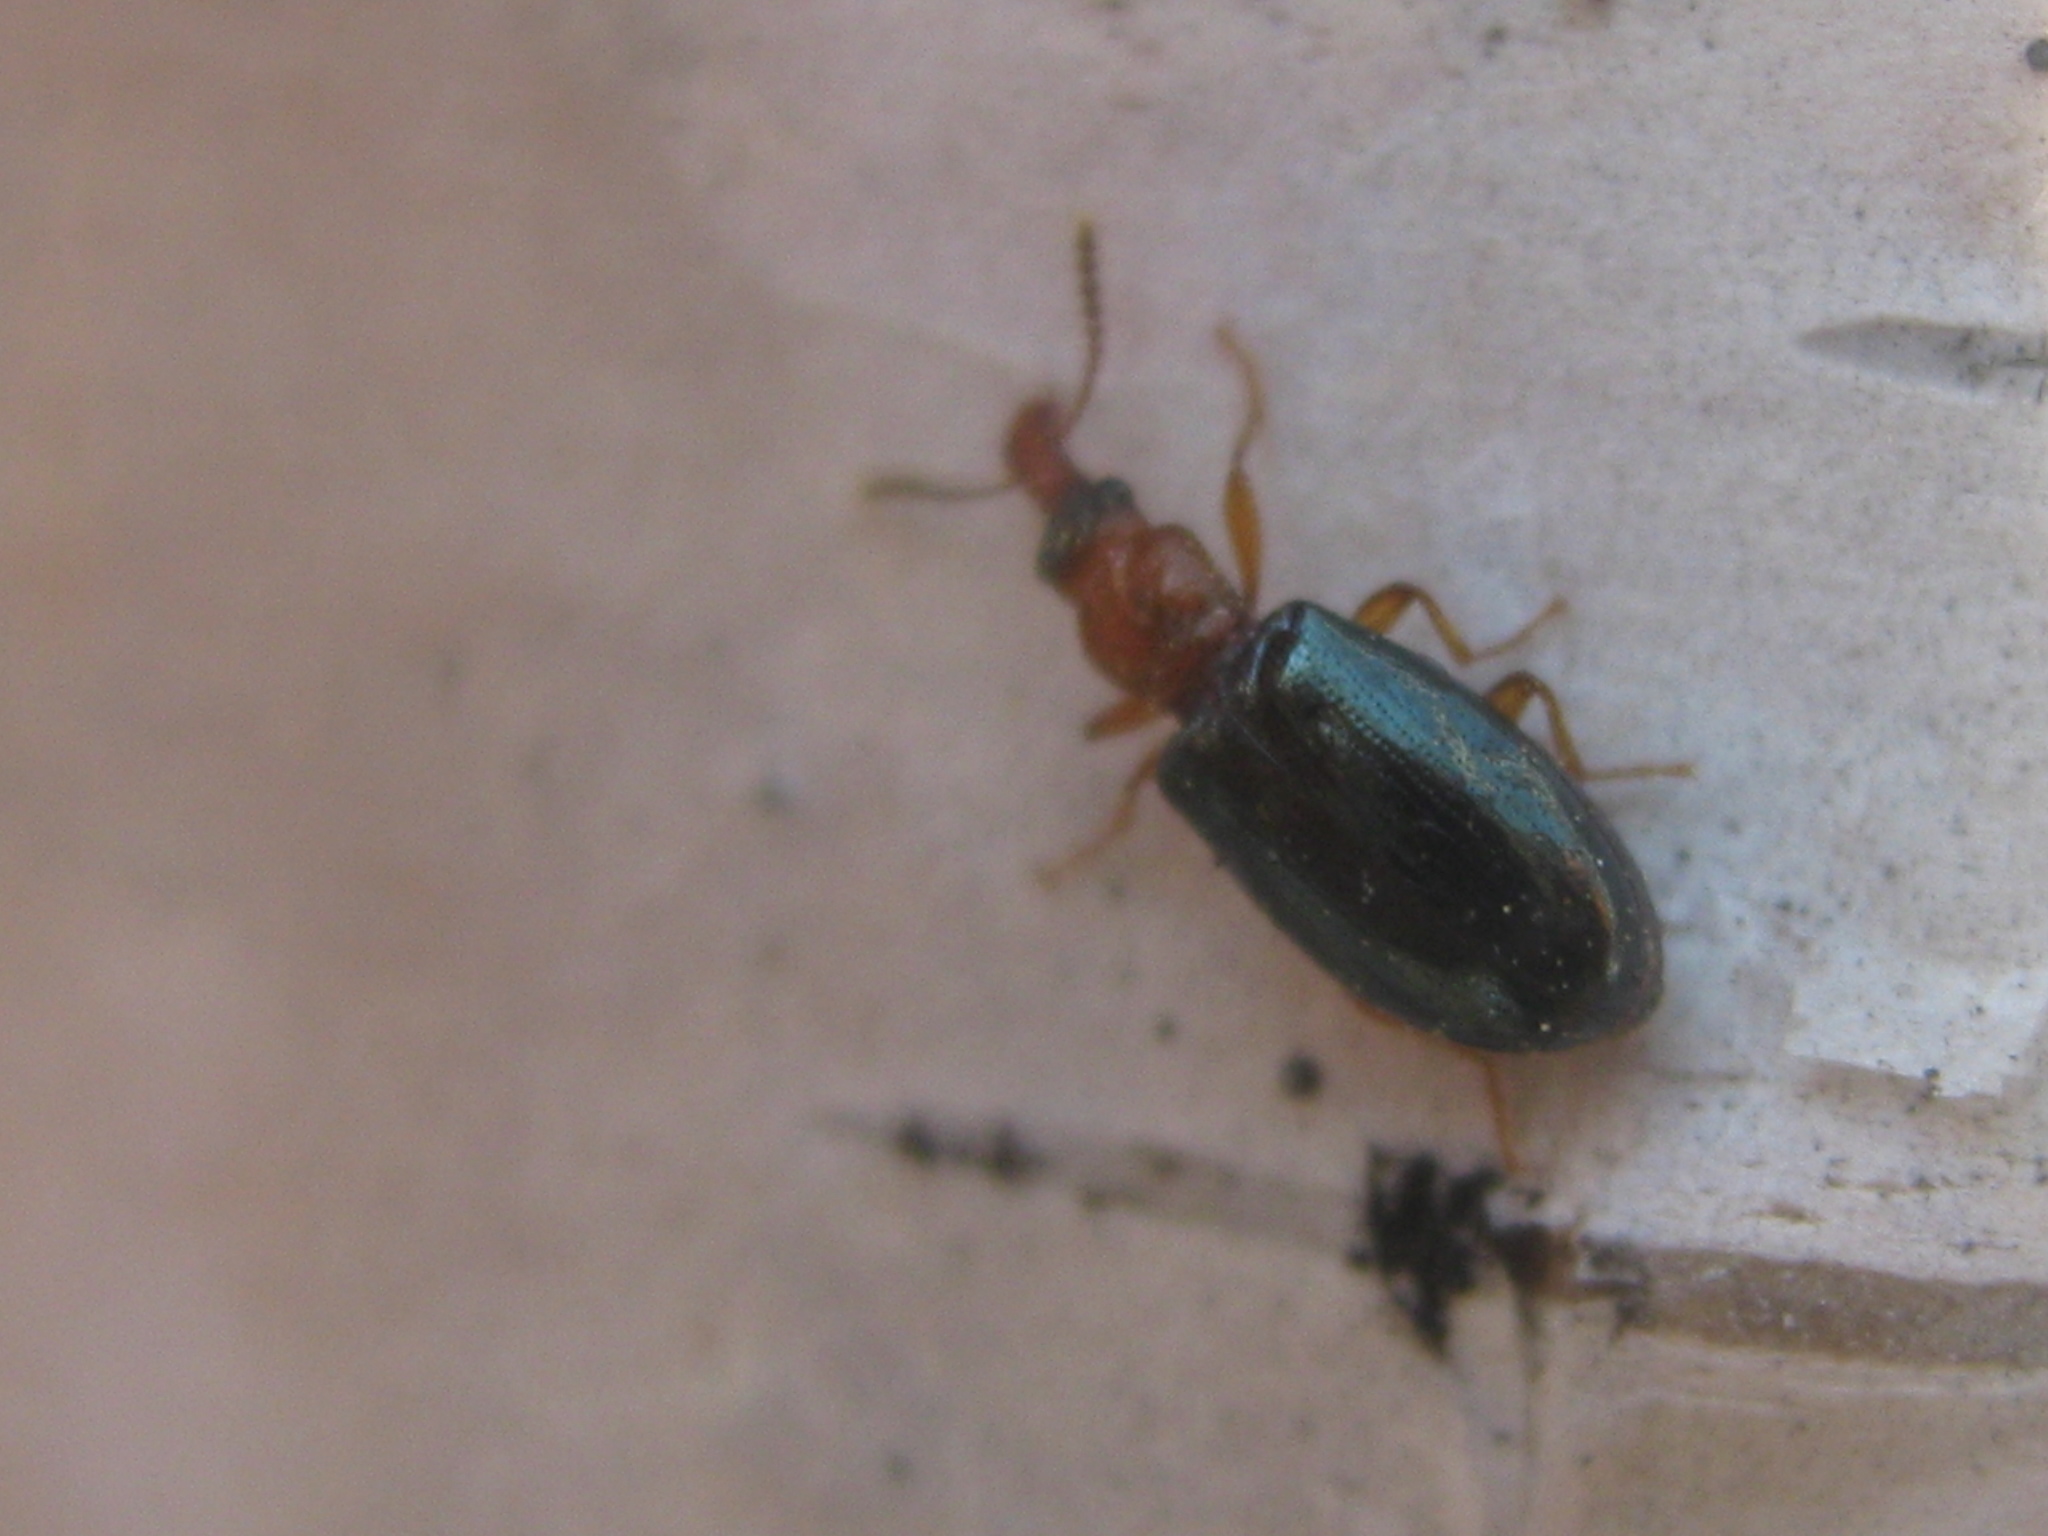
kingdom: Animalia
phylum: Arthropoda
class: Insecta
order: Coleoptera
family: Salpingidae
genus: Salpingus
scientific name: Salpingus ruficollis
